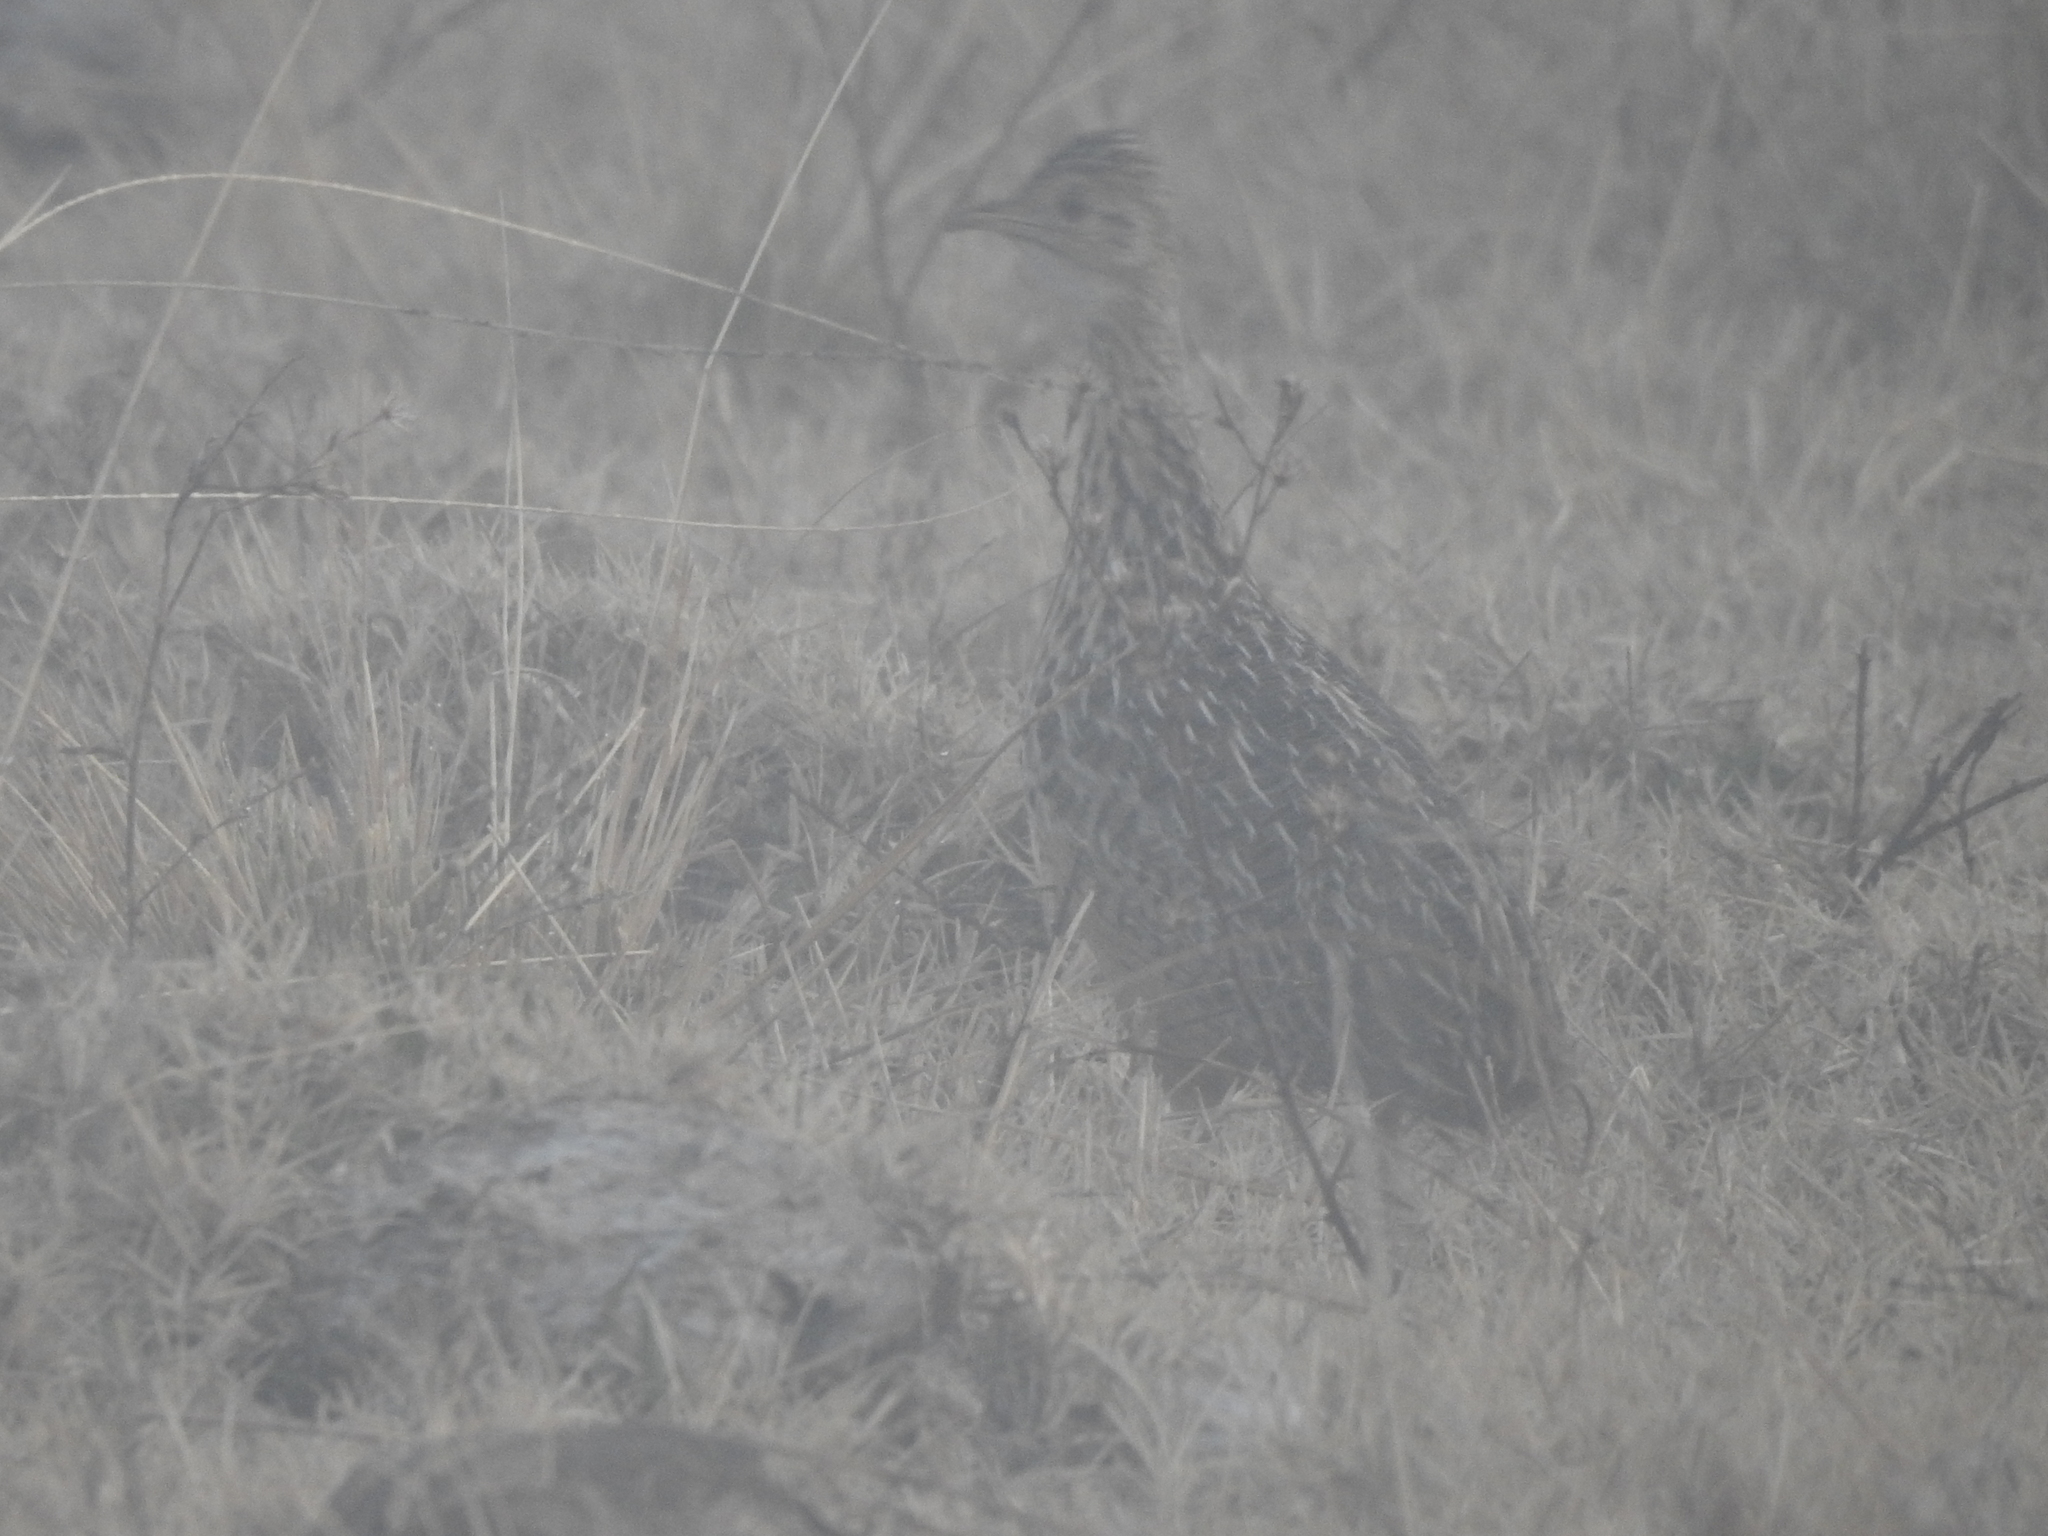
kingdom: Animalia
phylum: Chordata
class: Aves
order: Tinamiformes
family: Tinamidae
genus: Nothura
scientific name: Nothura maculosa
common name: Spotted nothura
